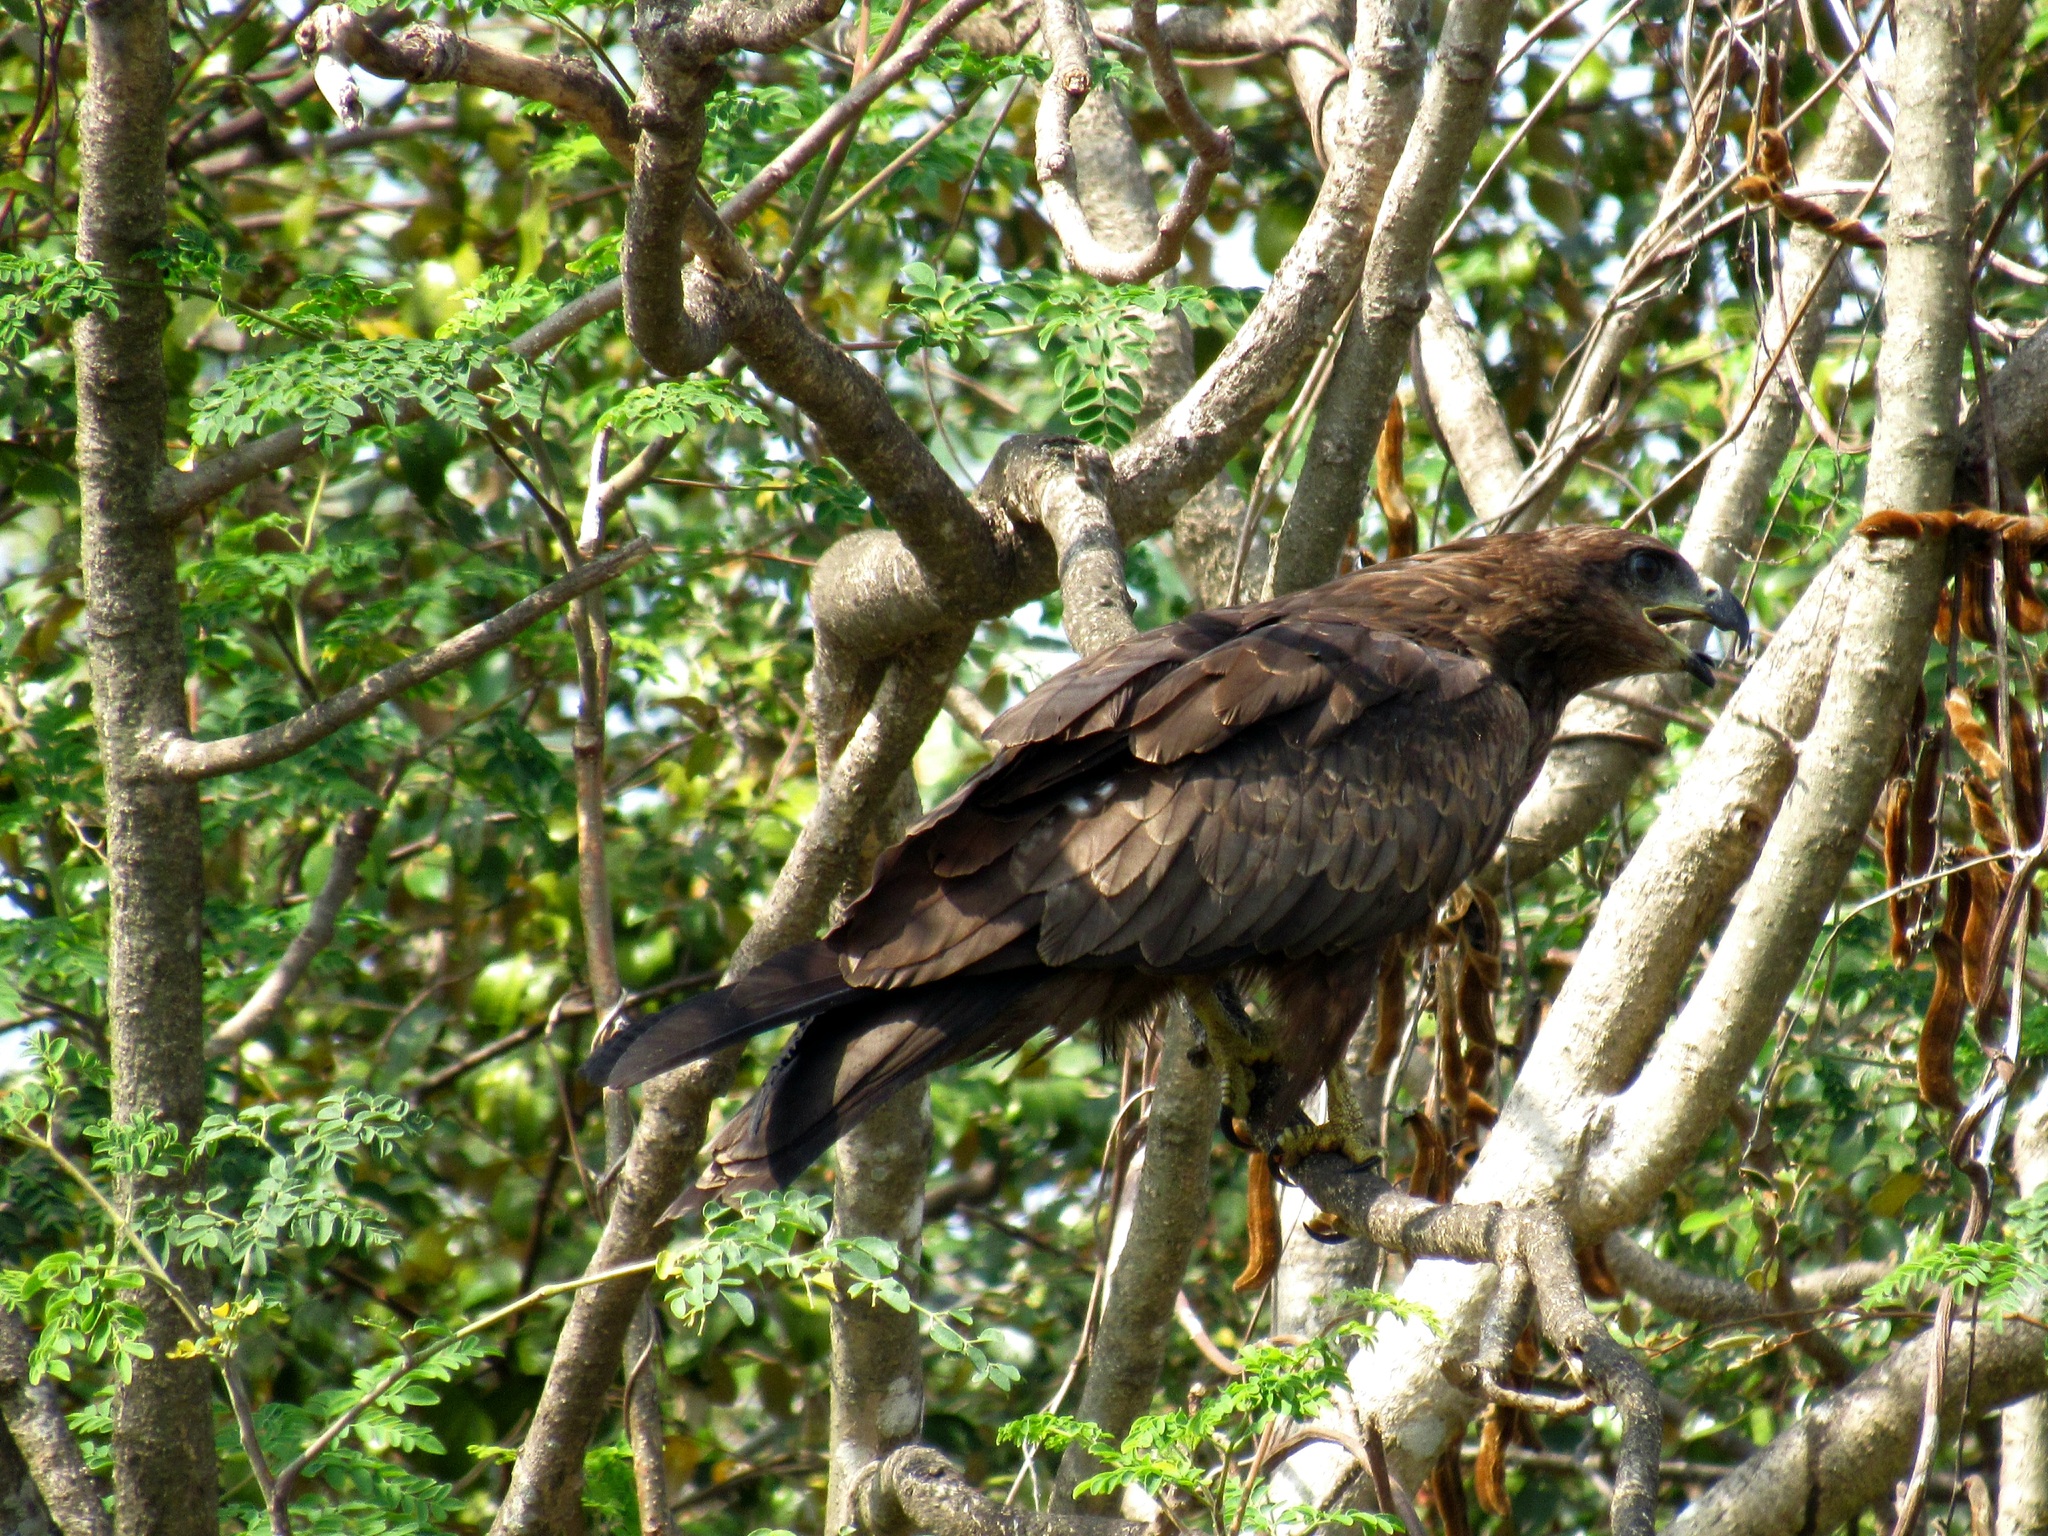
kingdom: Animalia
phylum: Chordata
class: Aves
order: Accipitriformes
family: Accipitridae
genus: Milvus
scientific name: Milvus migrans
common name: Black kite
